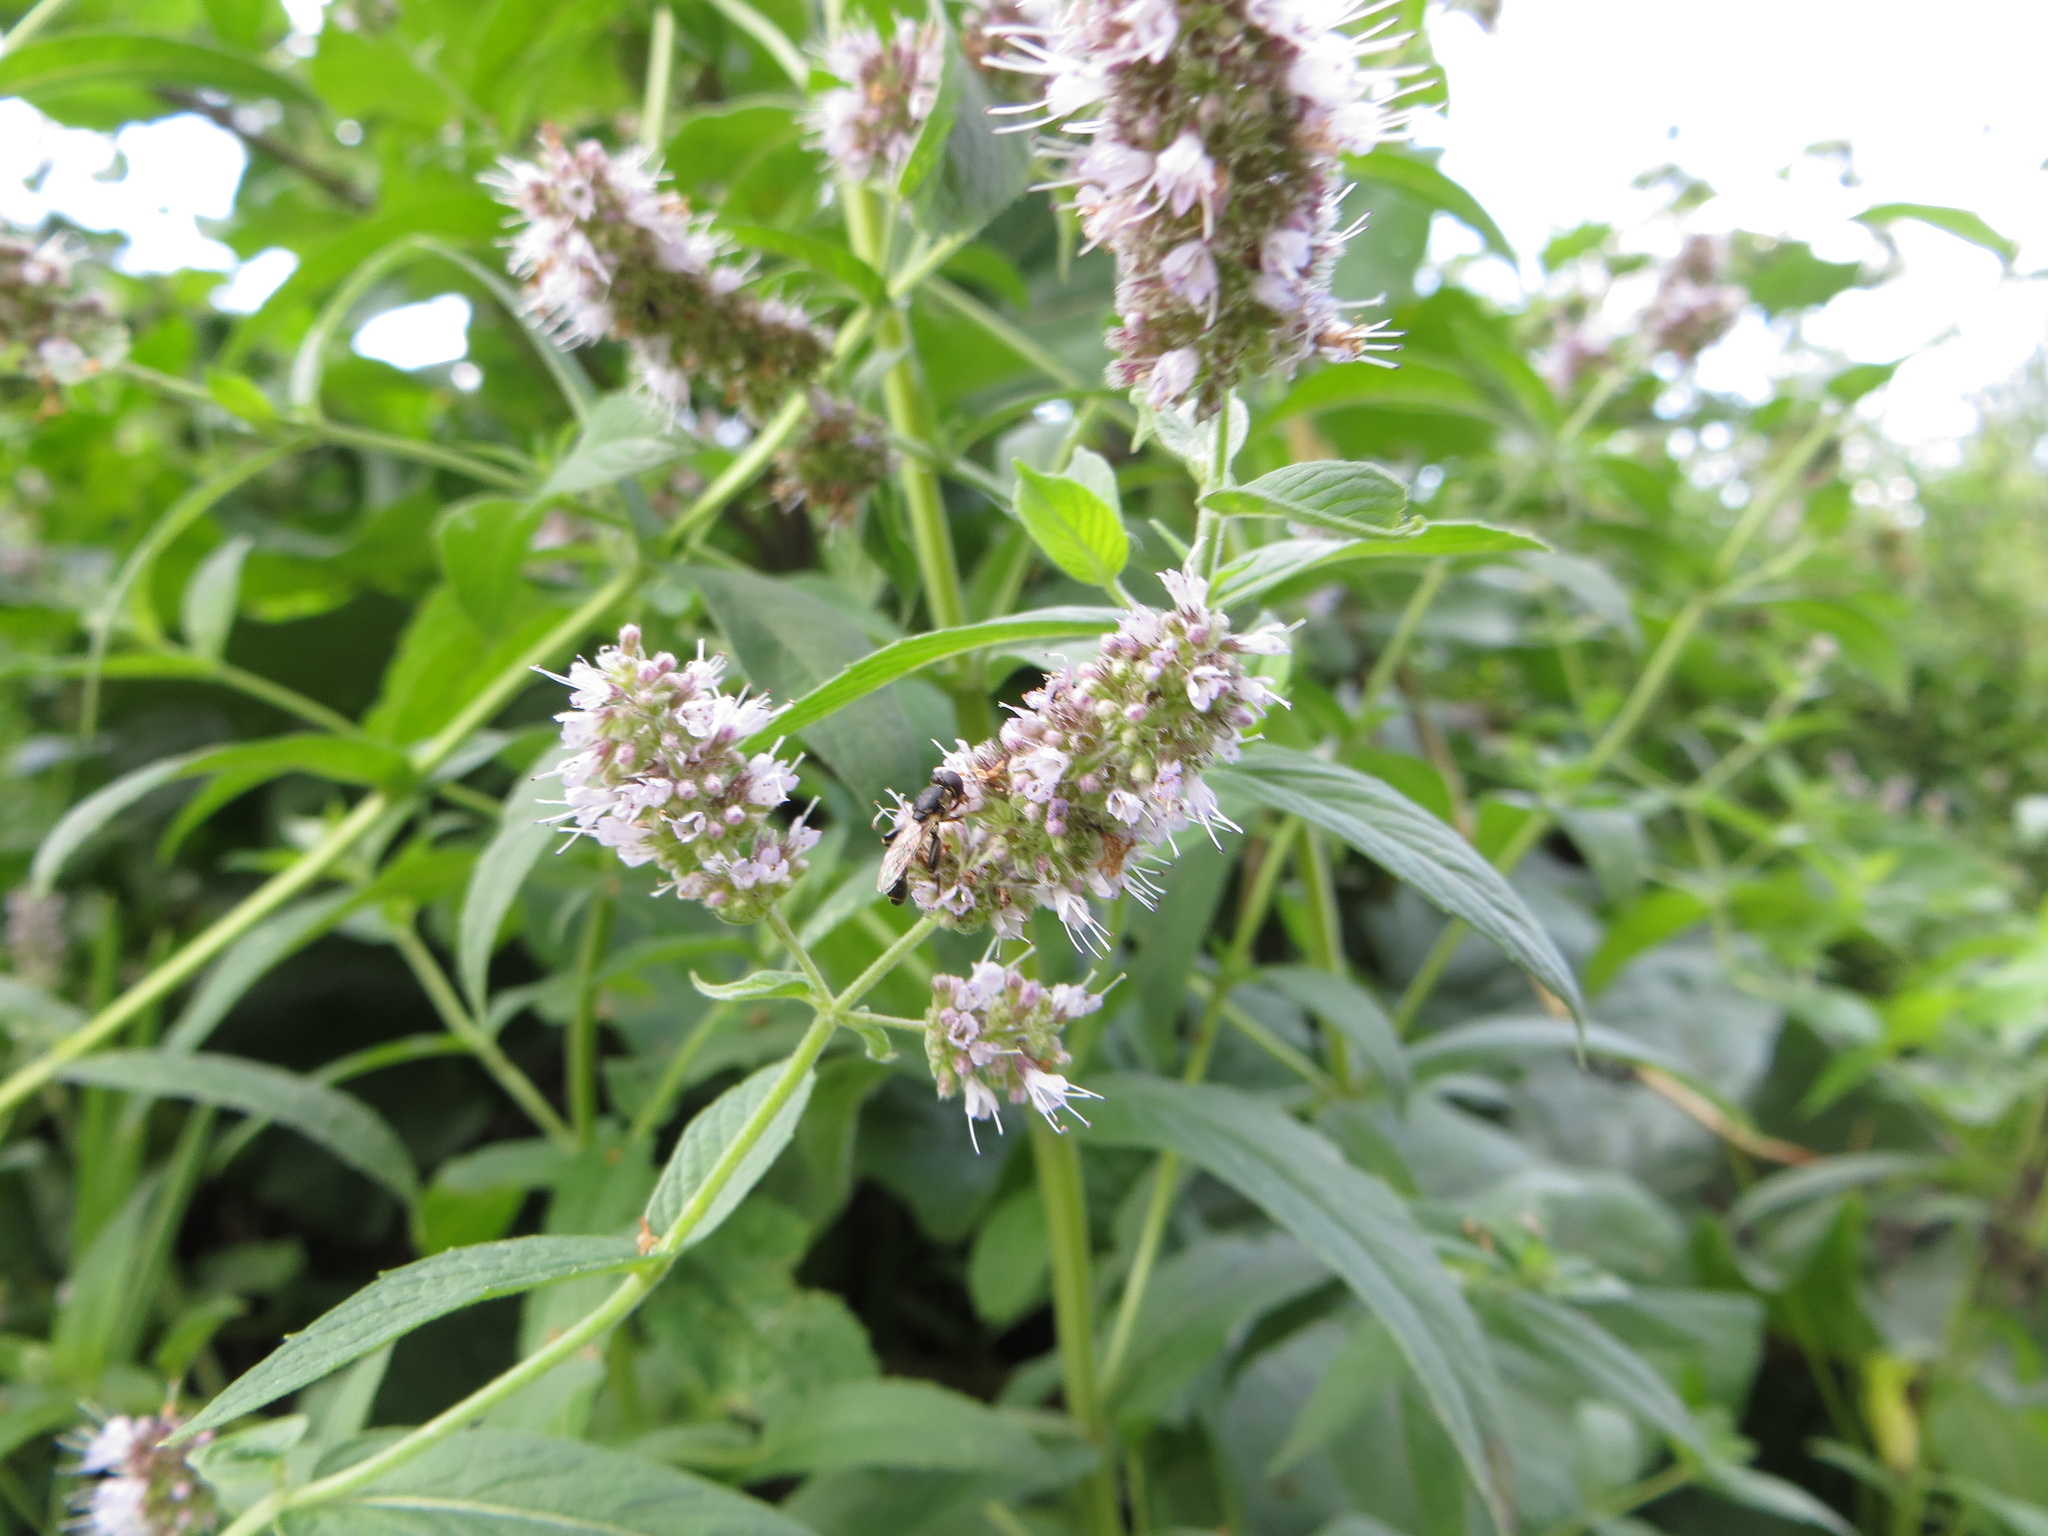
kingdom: Animalia
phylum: Arthropoda
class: Insecta
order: Diptera
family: Syrphidae
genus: Syritta
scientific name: Syritta pipiens
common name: Hover fly
